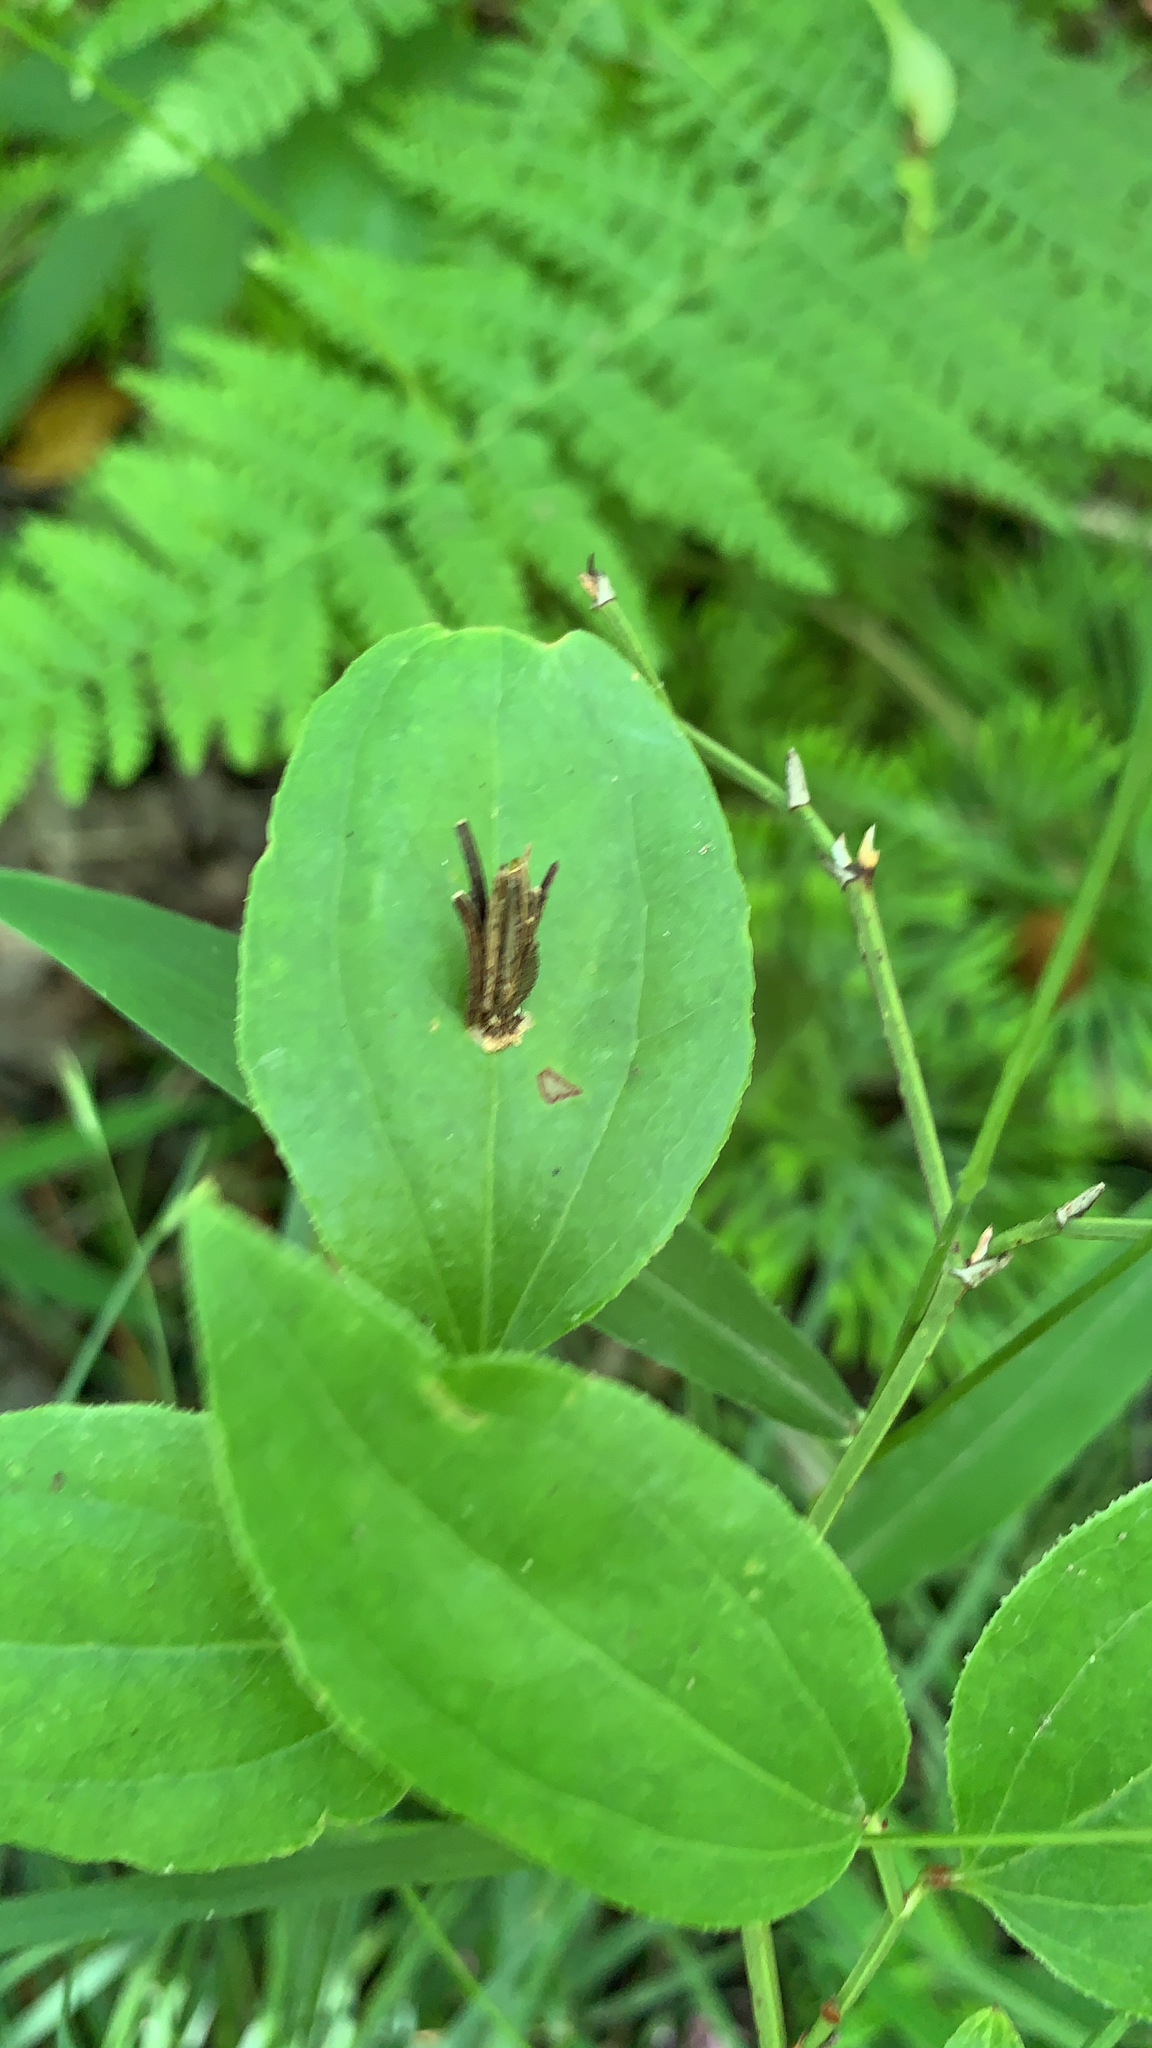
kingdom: Animalia
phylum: Arthropoda
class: Insecta
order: Lepidoptera
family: Psychidae
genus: Psyche
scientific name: Psyche casta
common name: Common sweep
